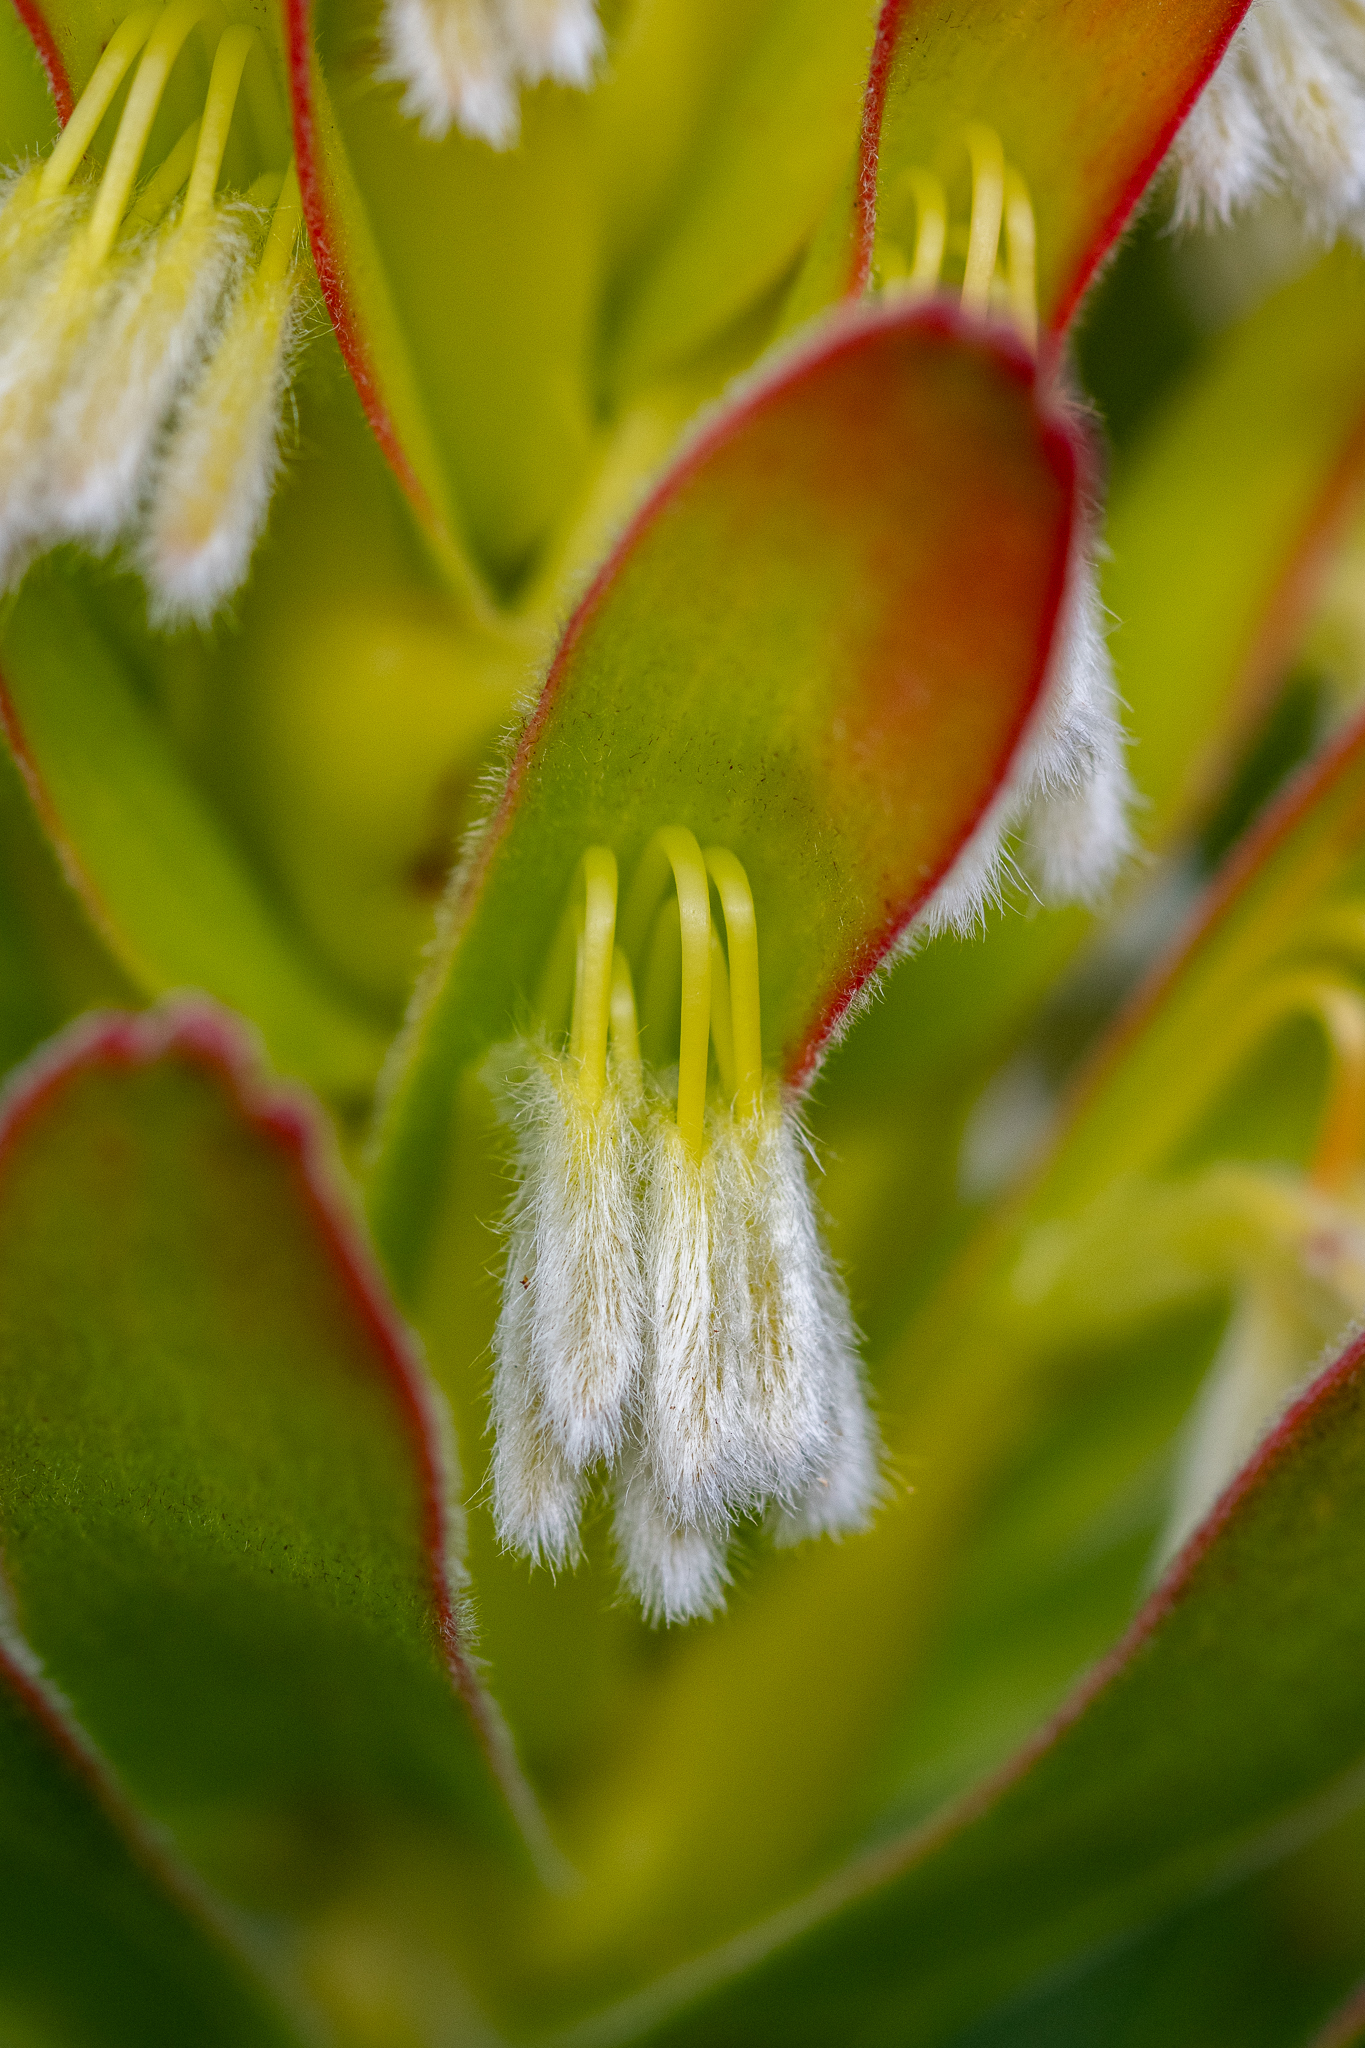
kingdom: Plantae
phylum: Tracheophyta
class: Magnoliopsida
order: Proteales
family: Proteaceae
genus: Mimetes
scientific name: Mimetes cucullatus
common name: Common pagoda
